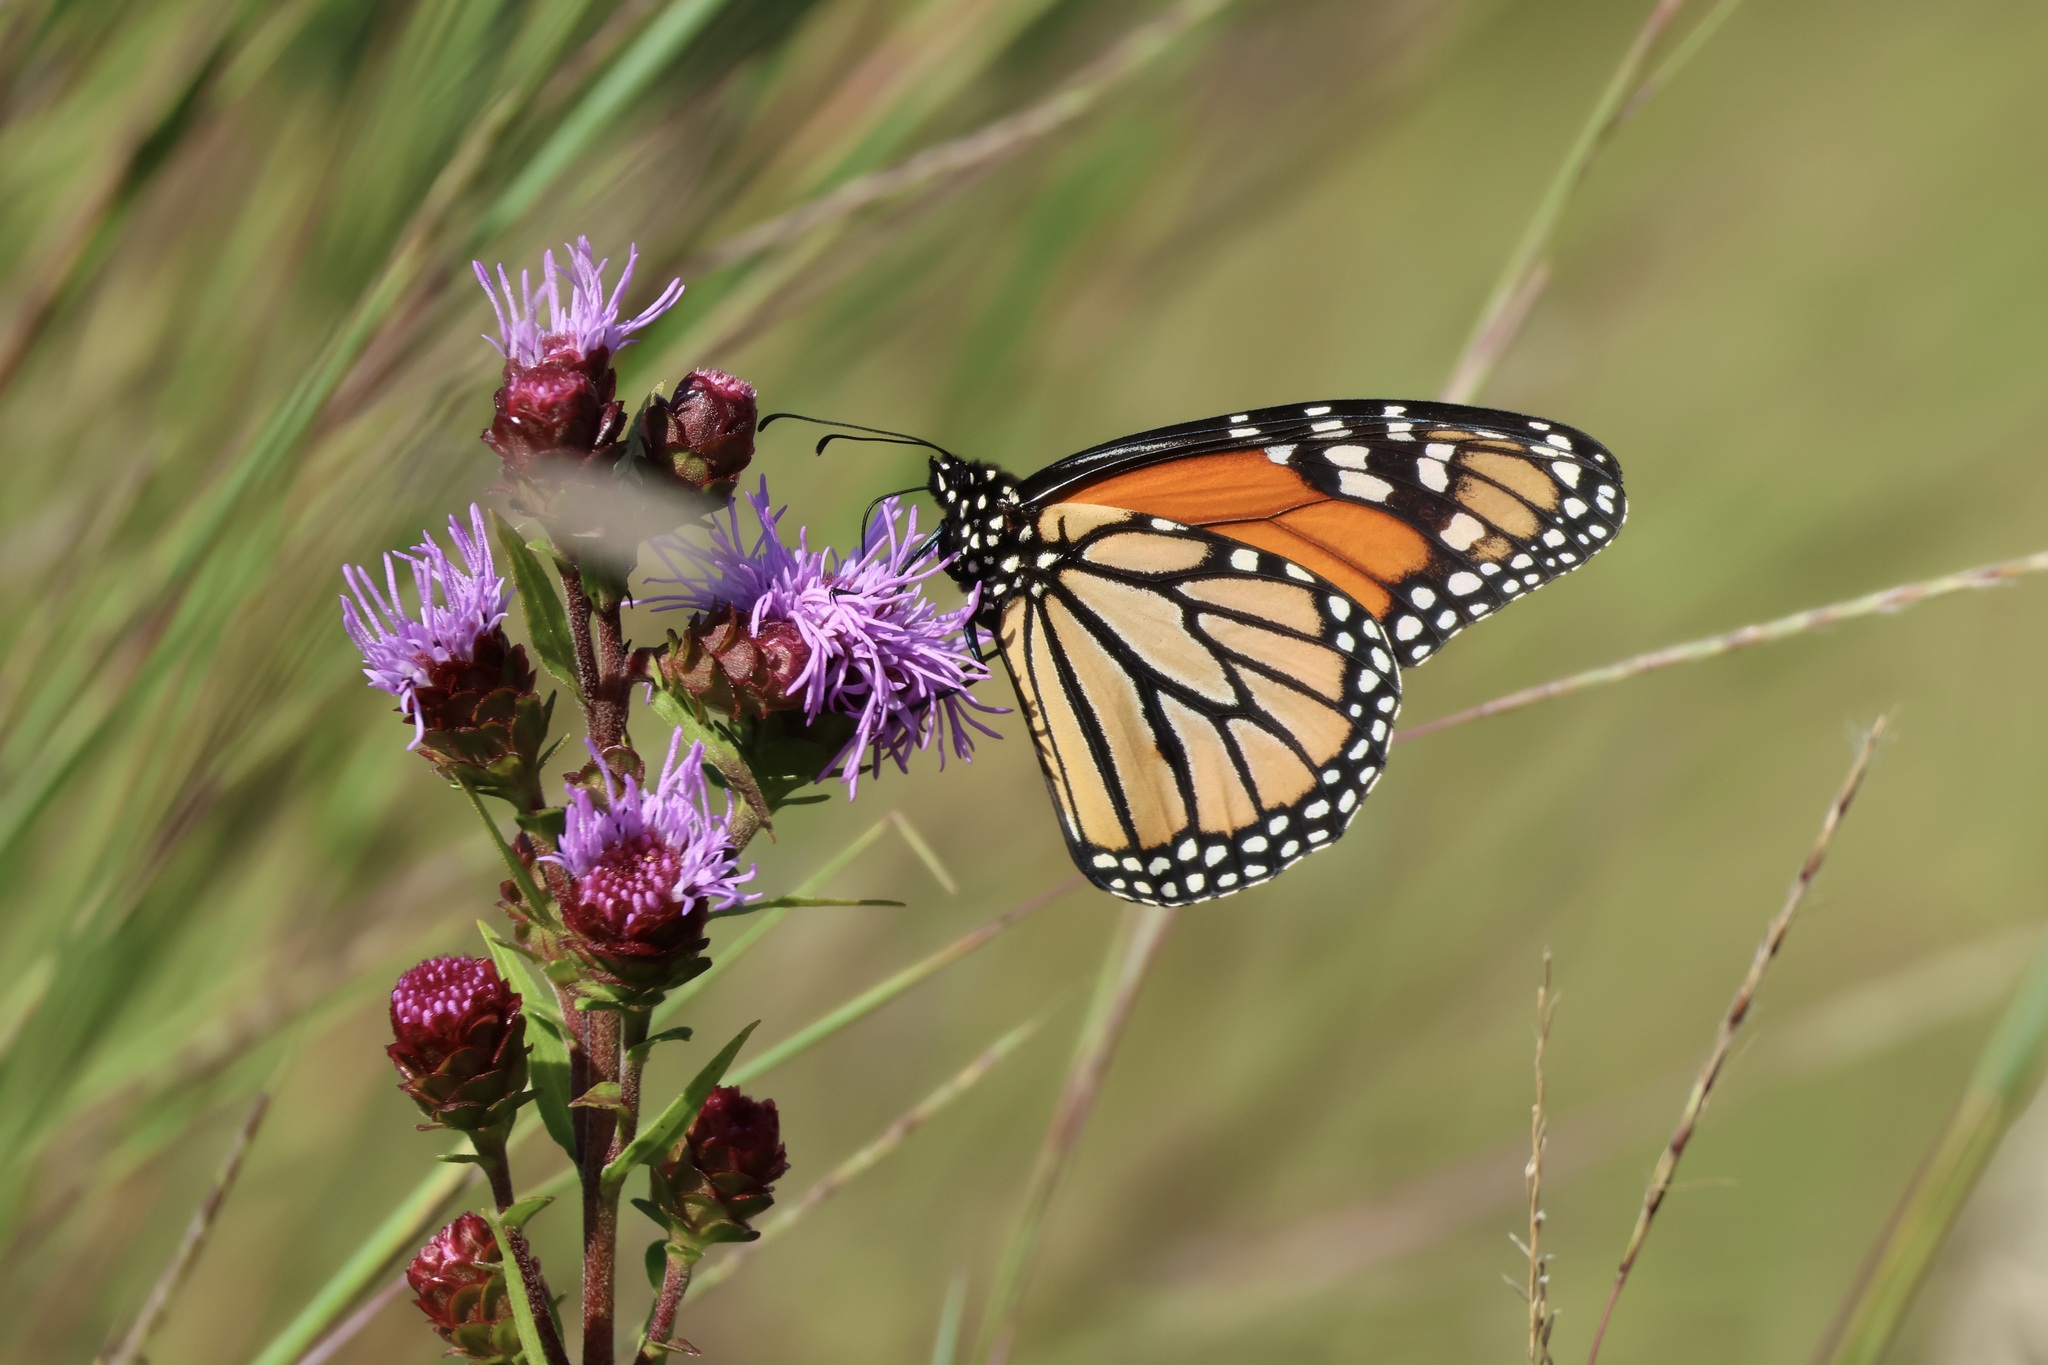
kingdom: Animalia
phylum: Arthropoda
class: Insecta
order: Lepidoptera
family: Nymphalidae
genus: Danaus
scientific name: Danaus plexippus
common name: Monarch
